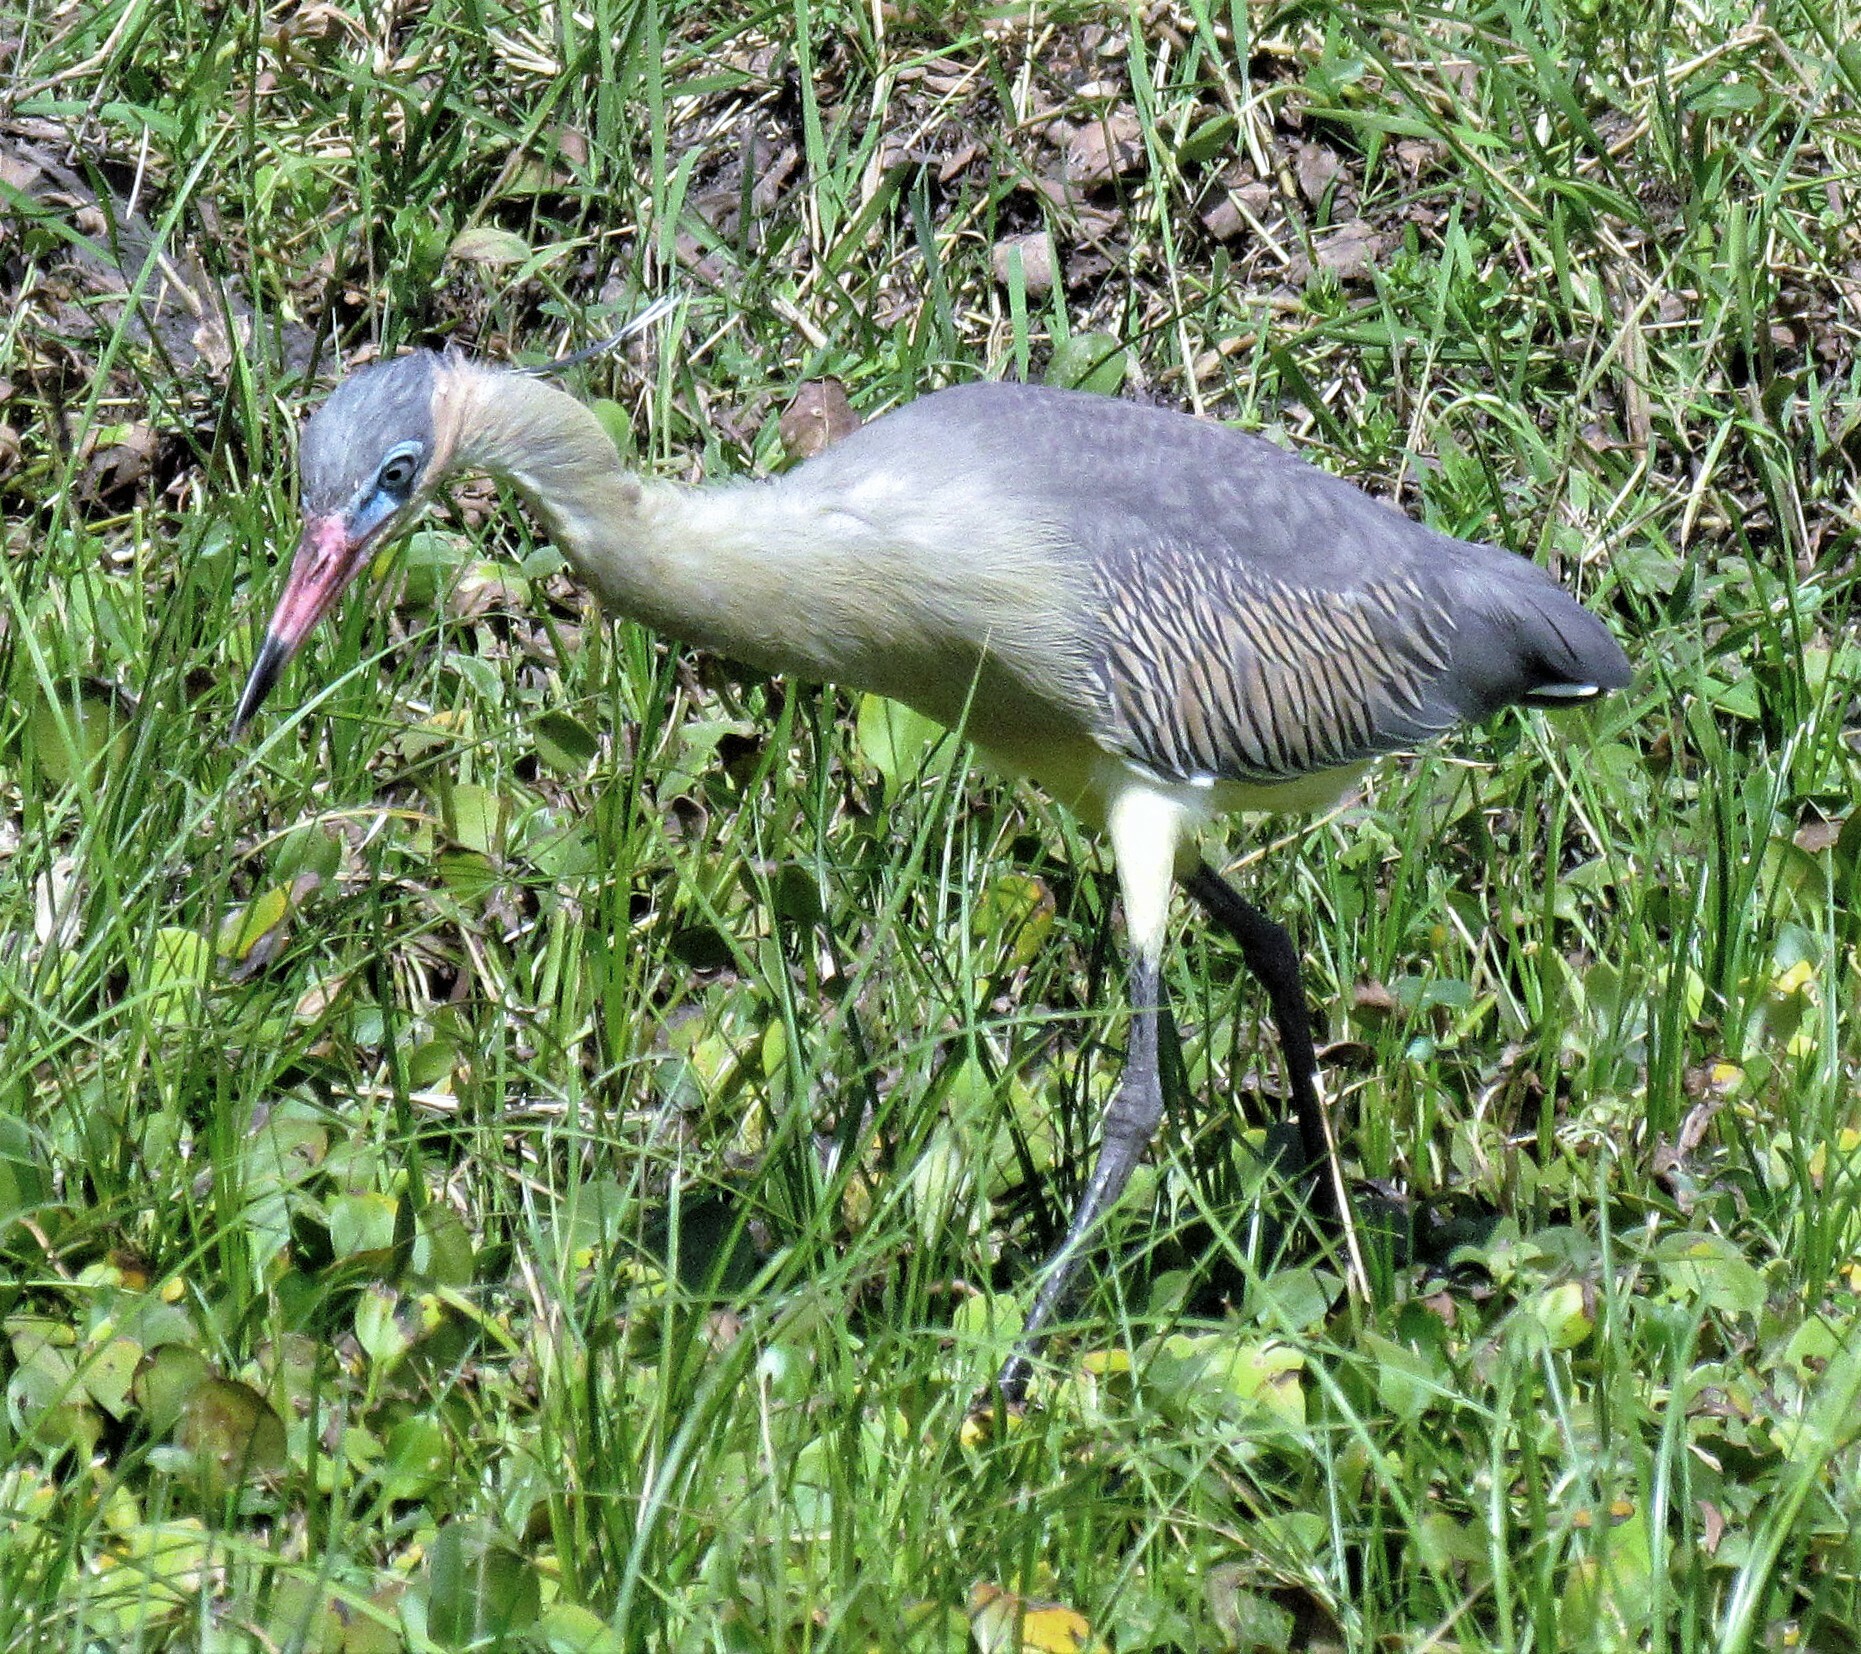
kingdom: Animalia
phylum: Chordata
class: Aves
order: Pelecaniformes
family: Ardeidae
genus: Syrigma
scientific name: Syrigma sibilatrix
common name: Whistling heron
